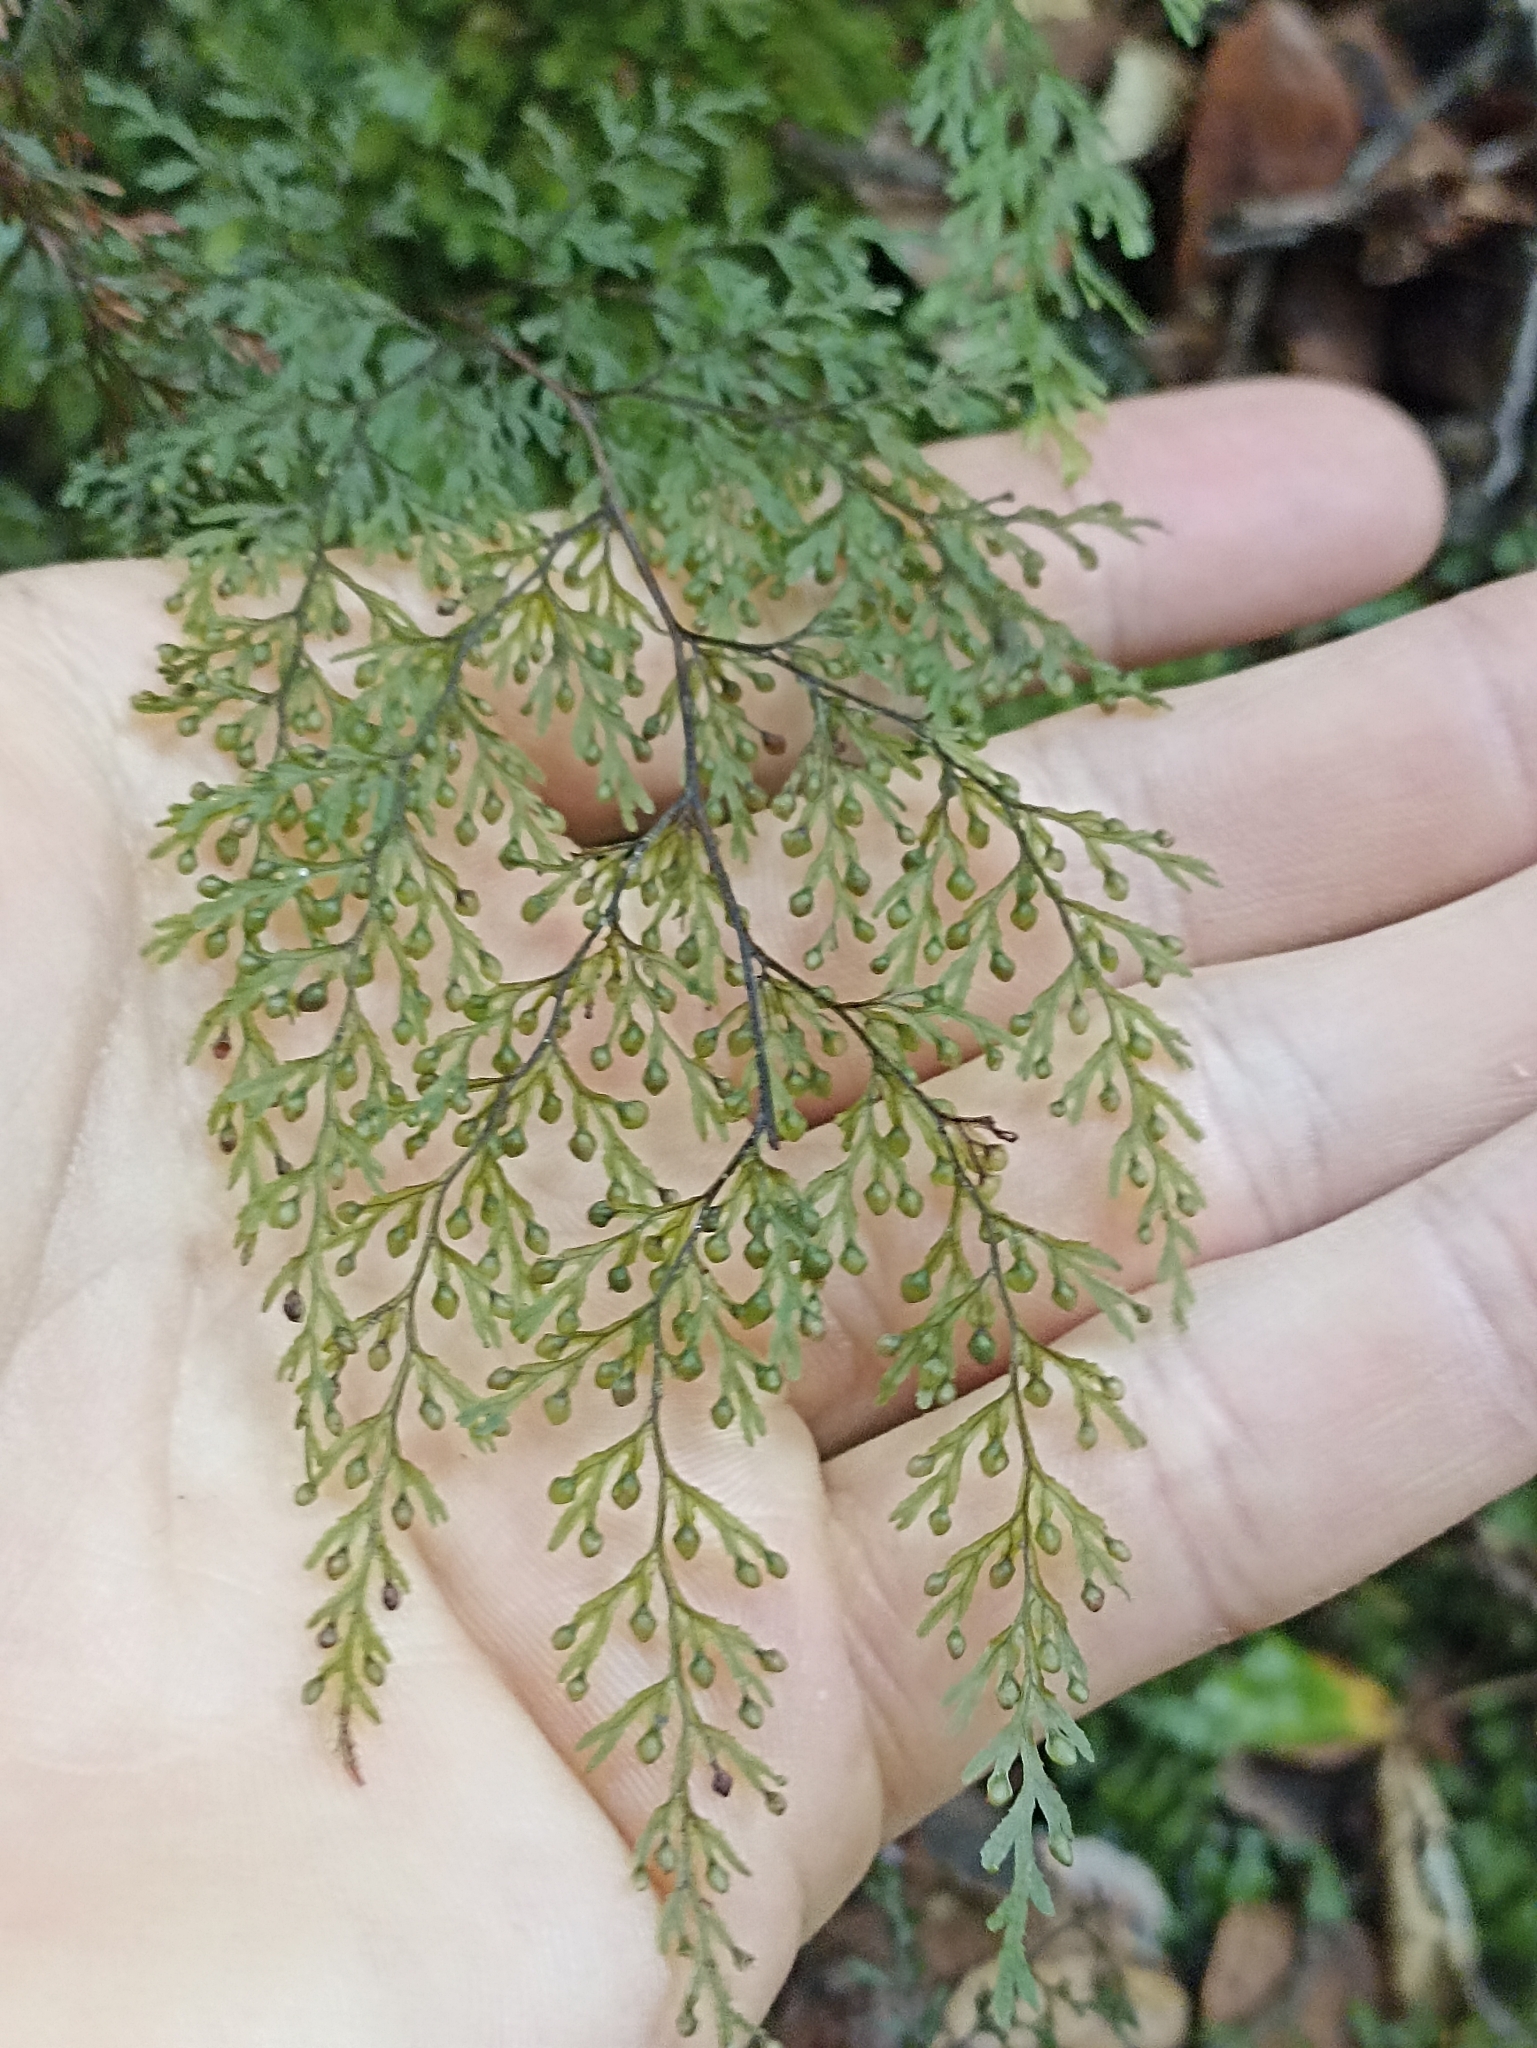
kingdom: Plantae
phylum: Tracheophyta
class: Polypodiopsida
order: Hymenophyllales
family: Hymenophyllaceae
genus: Hymenophyllum
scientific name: Hymenophyllum bivalve
